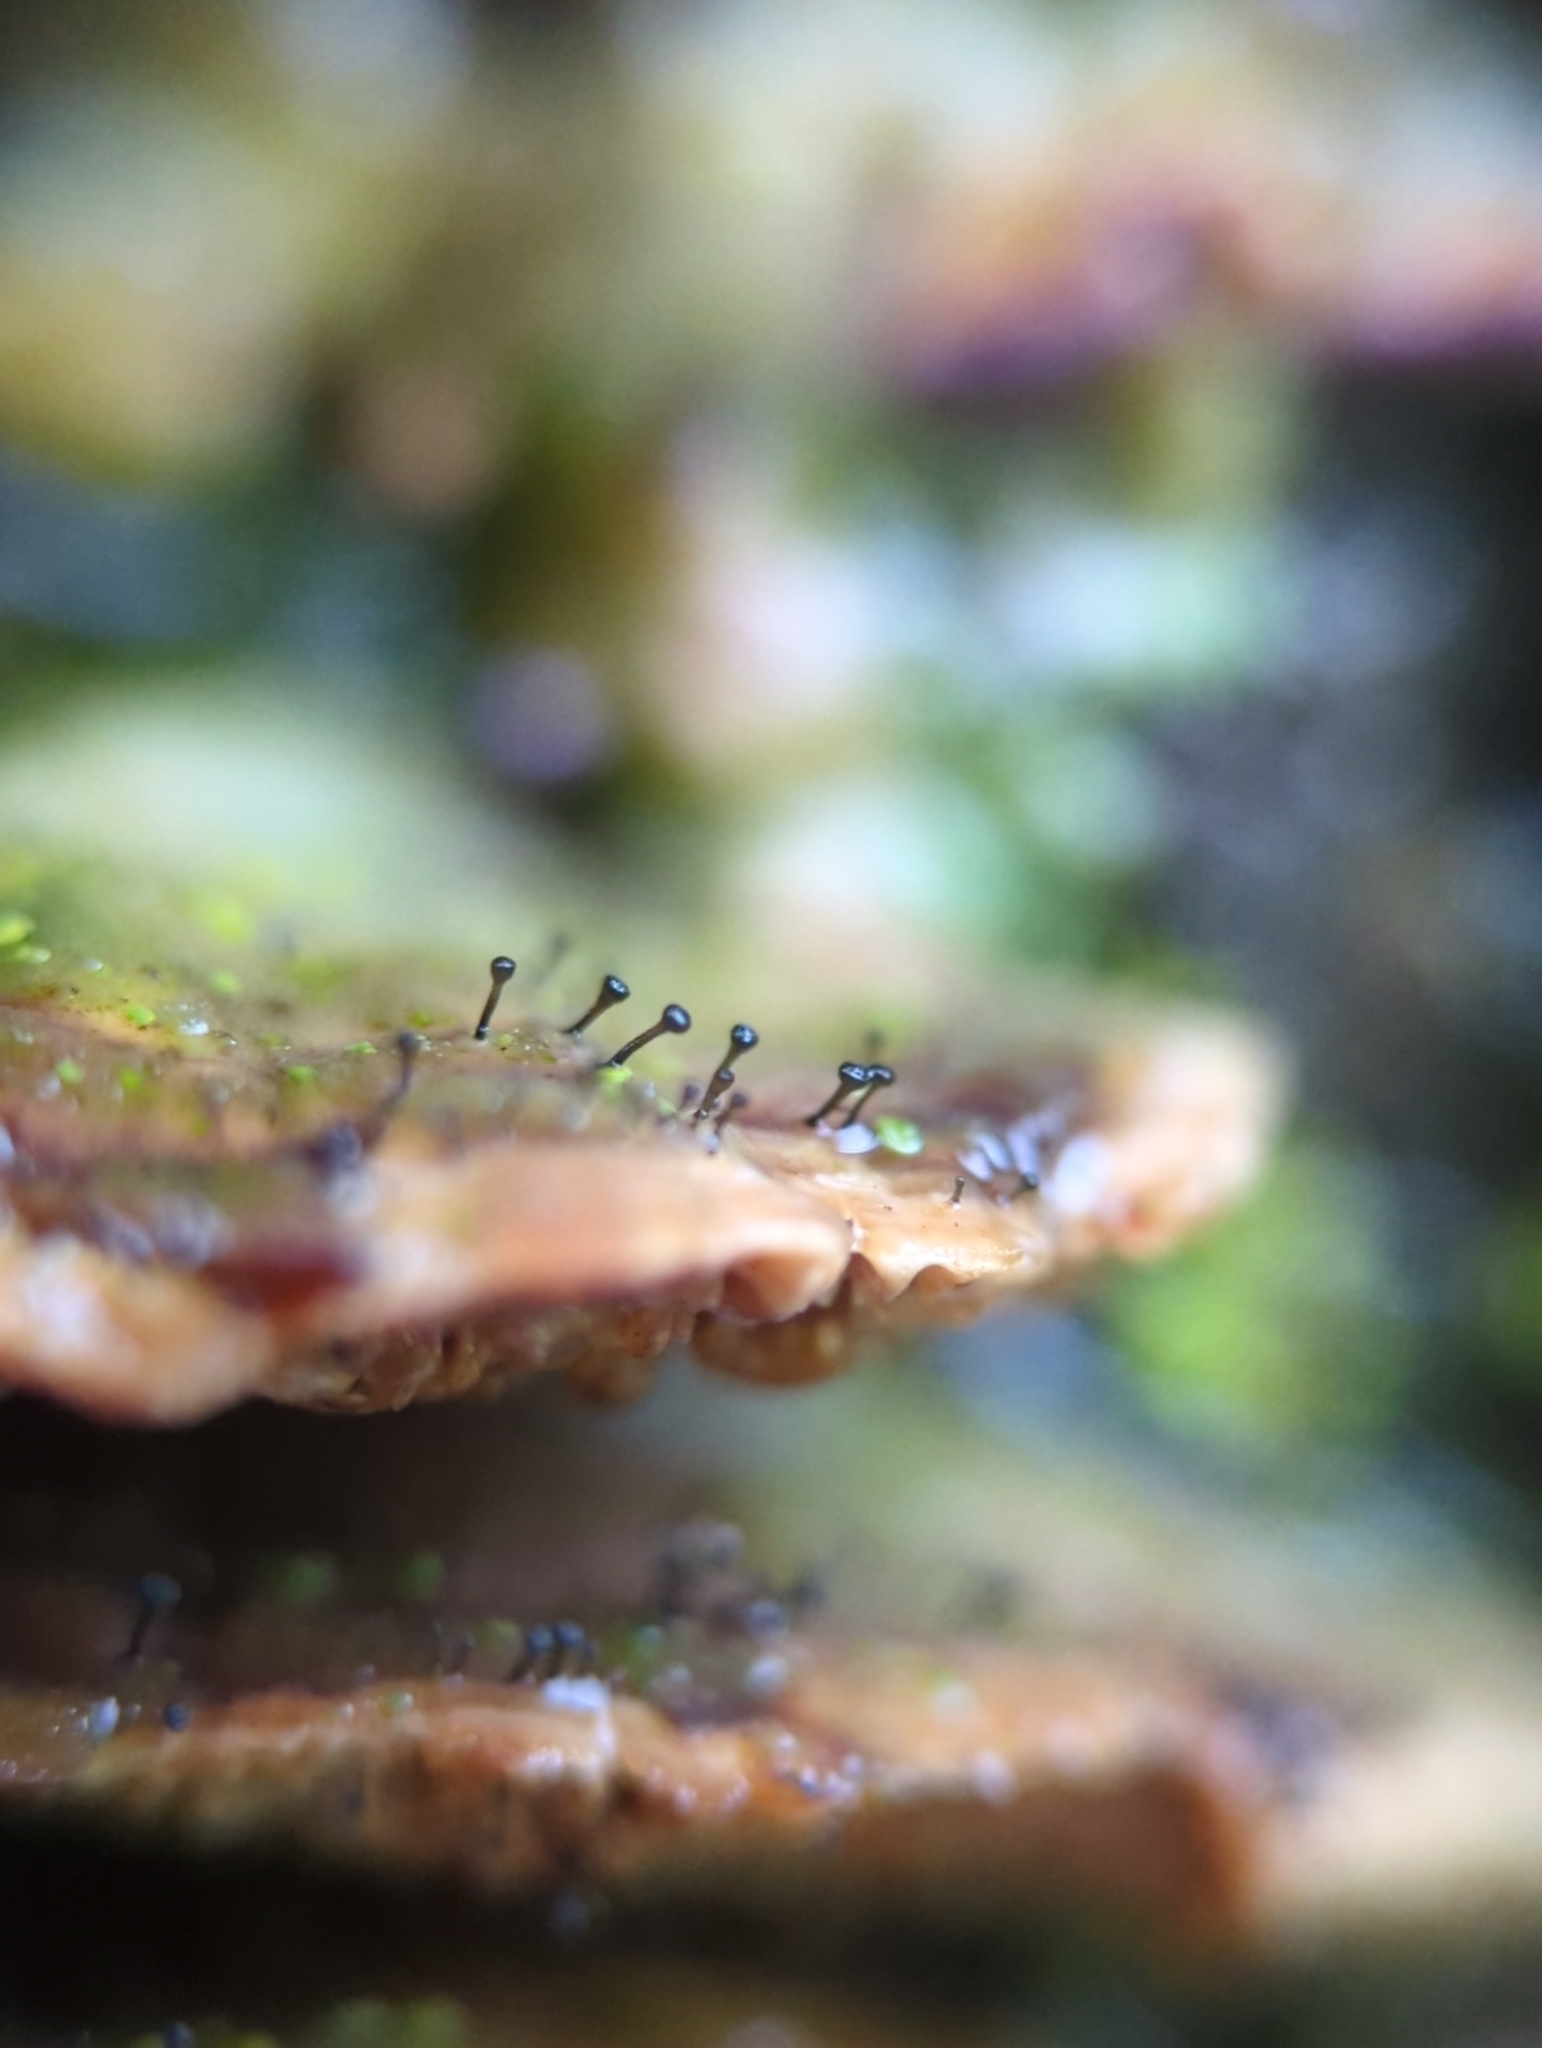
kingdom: Fungi
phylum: Ascomycota
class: Eurotiomycetes
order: Mycocaliciales
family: Mycocaliciaceae
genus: Phaeocalicium
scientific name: Phaeocalicium polyporaeum
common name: Fairy pins
